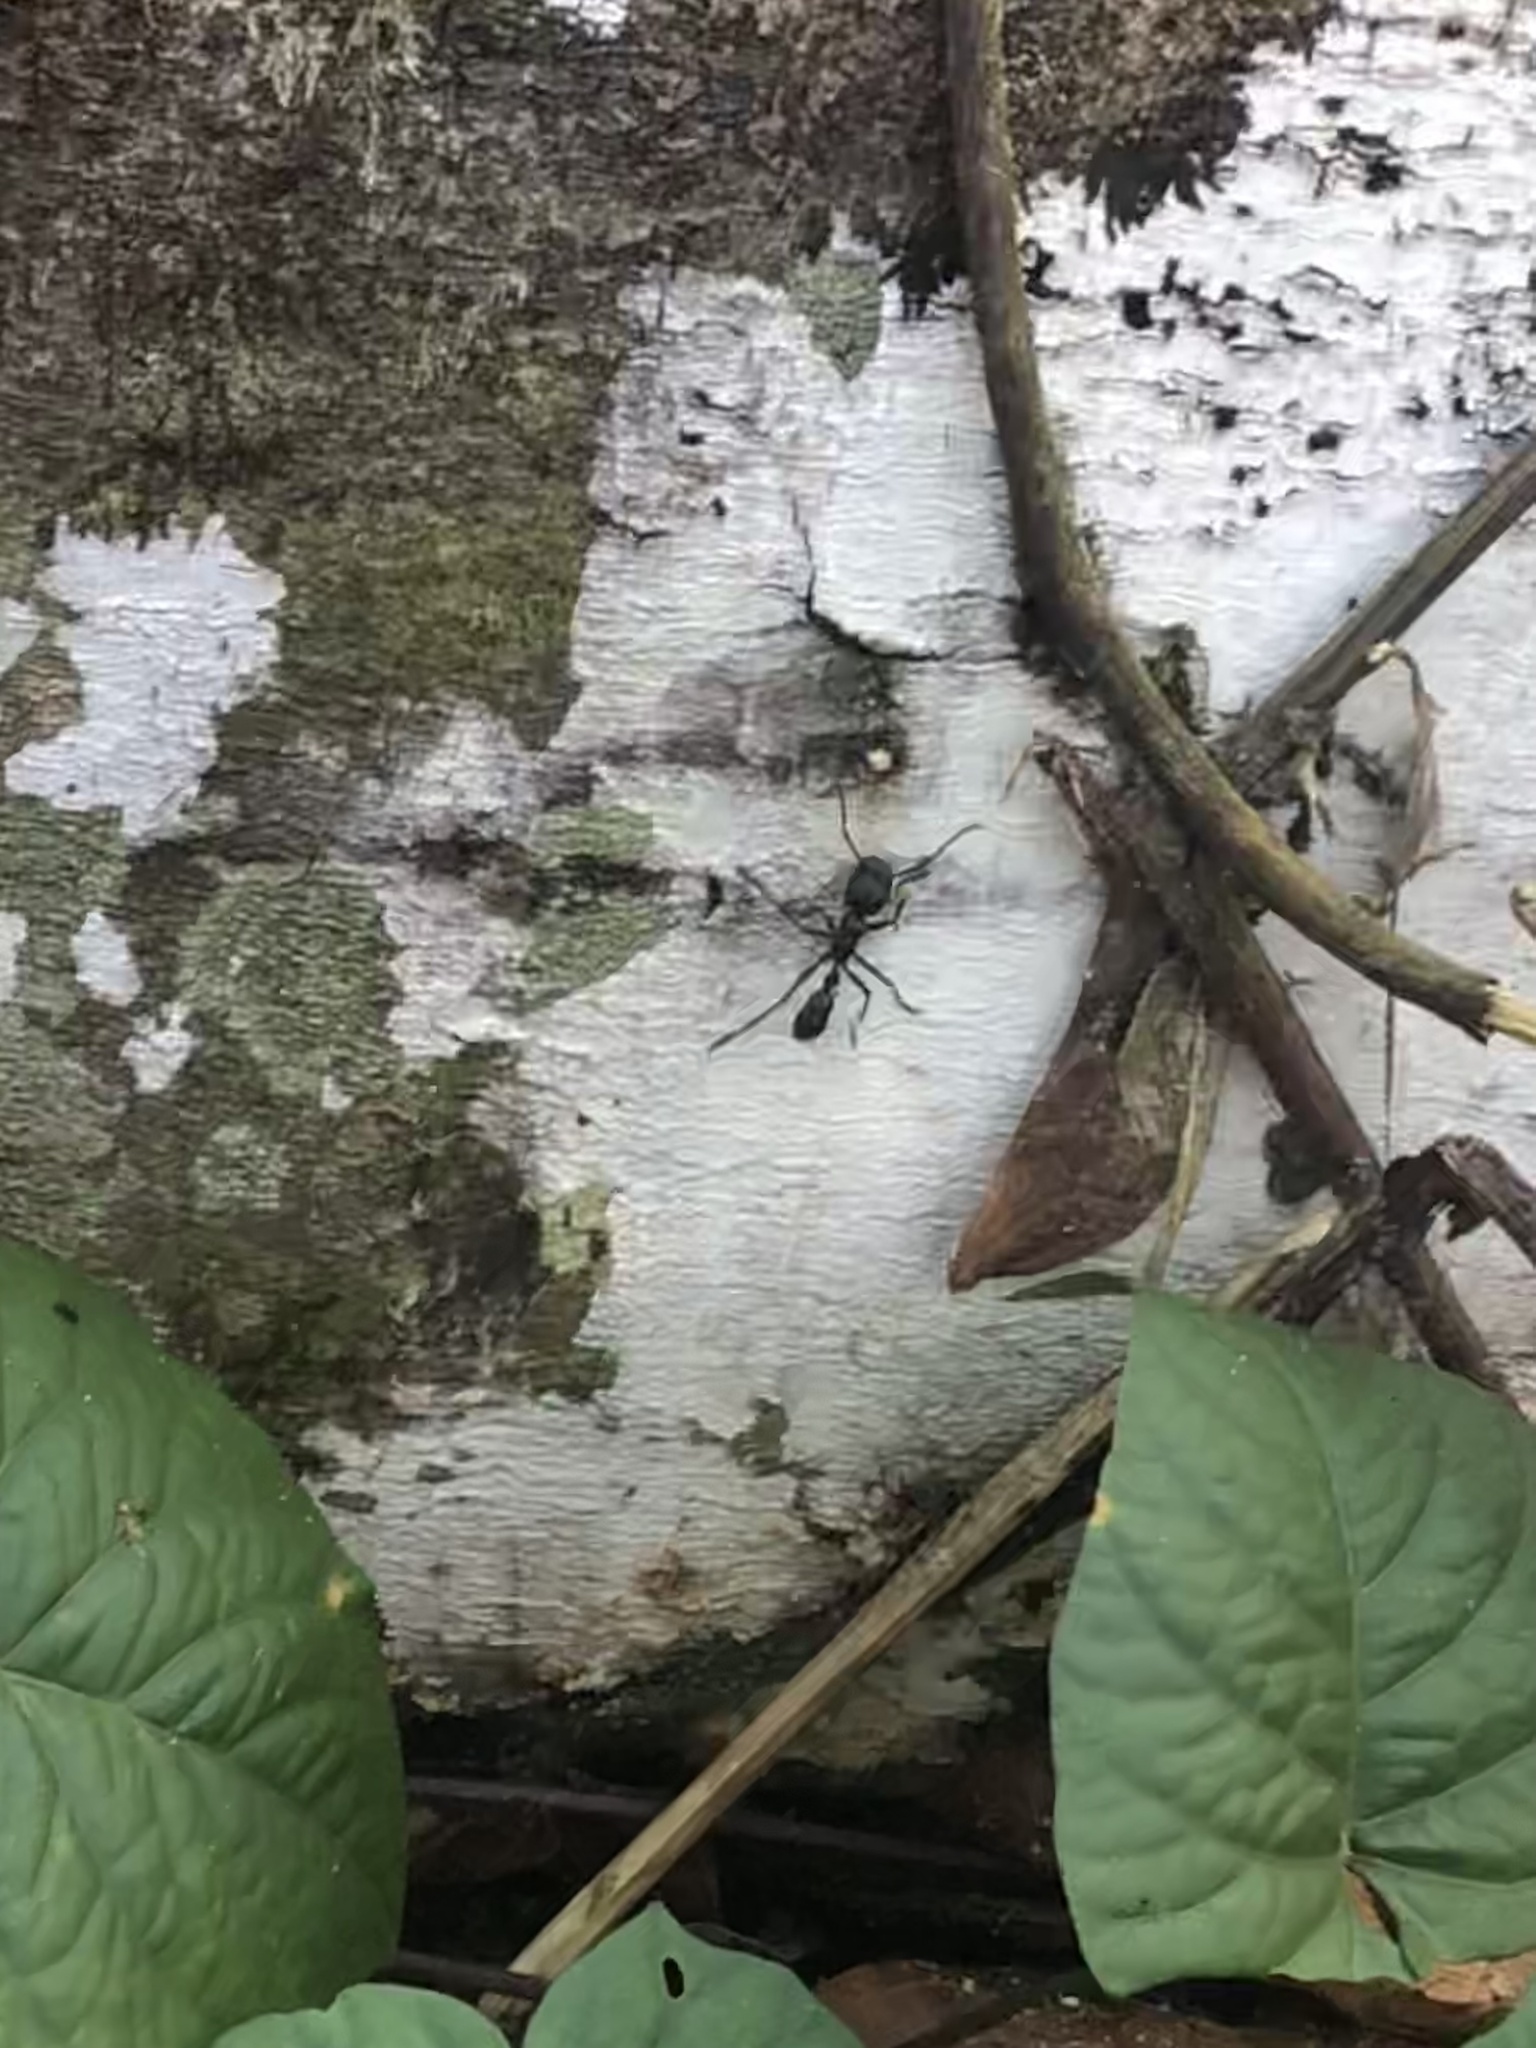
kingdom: Animalia
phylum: Arthropoda
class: Insecta
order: Hymenoptera
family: Formicidae
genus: Paraponera
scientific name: Paraponera clavata
